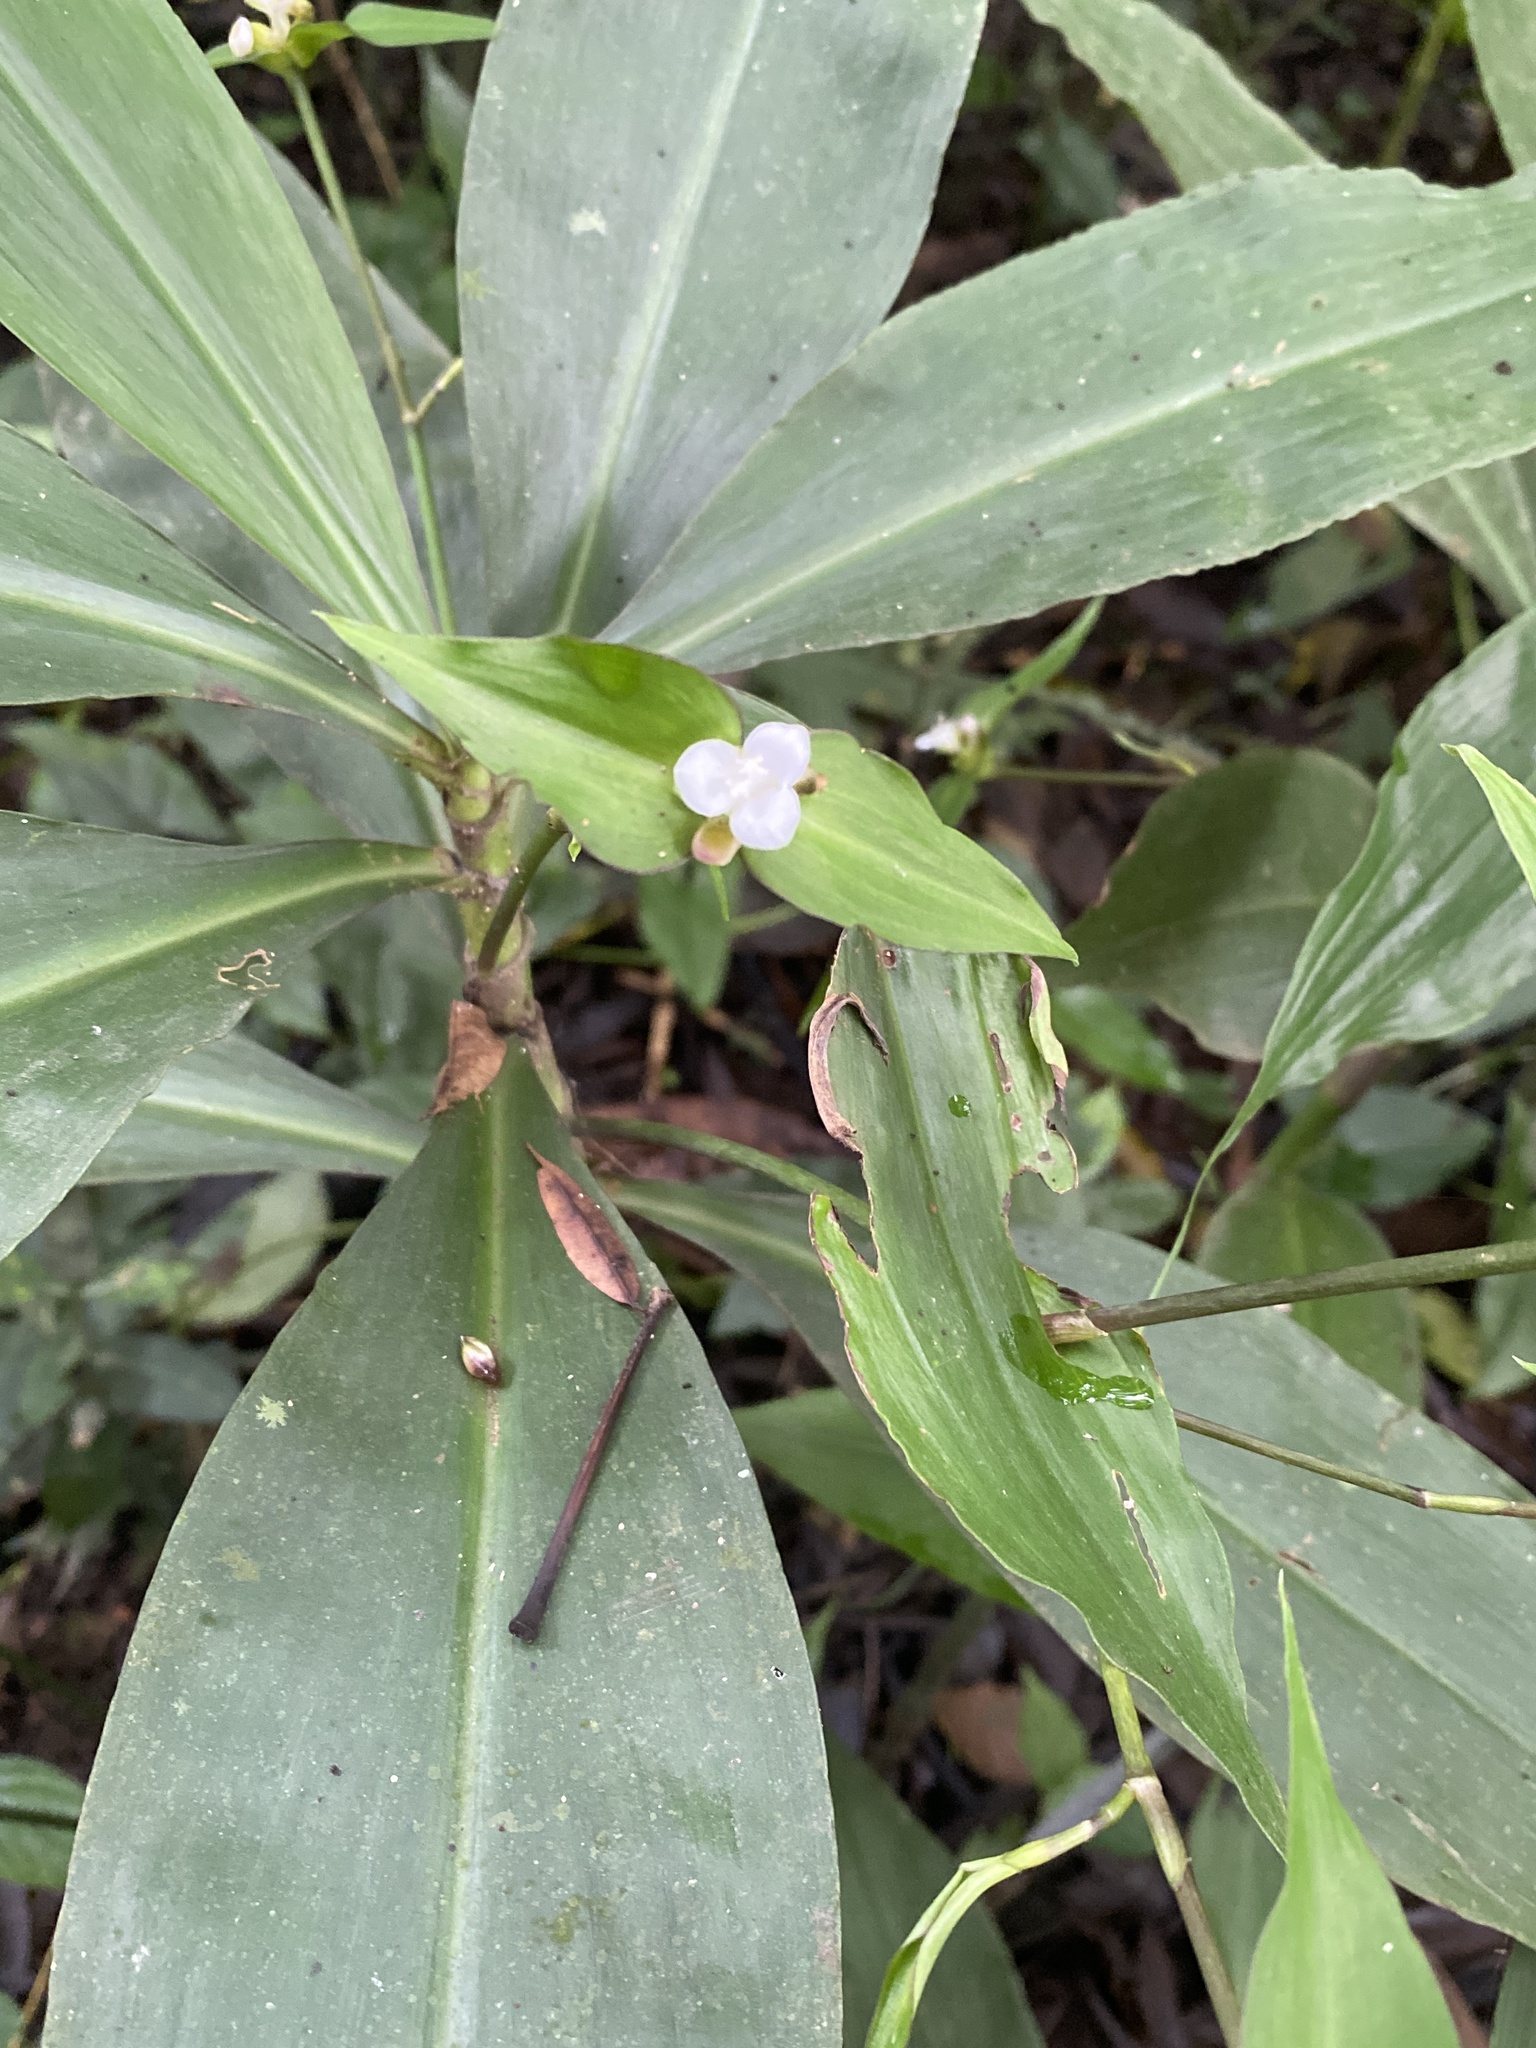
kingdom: Plantae
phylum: Tracheophyta
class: Liliopsida
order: Commelinales
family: Commelinaceae
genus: Tradescantia
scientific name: Tradescantia zanonia
